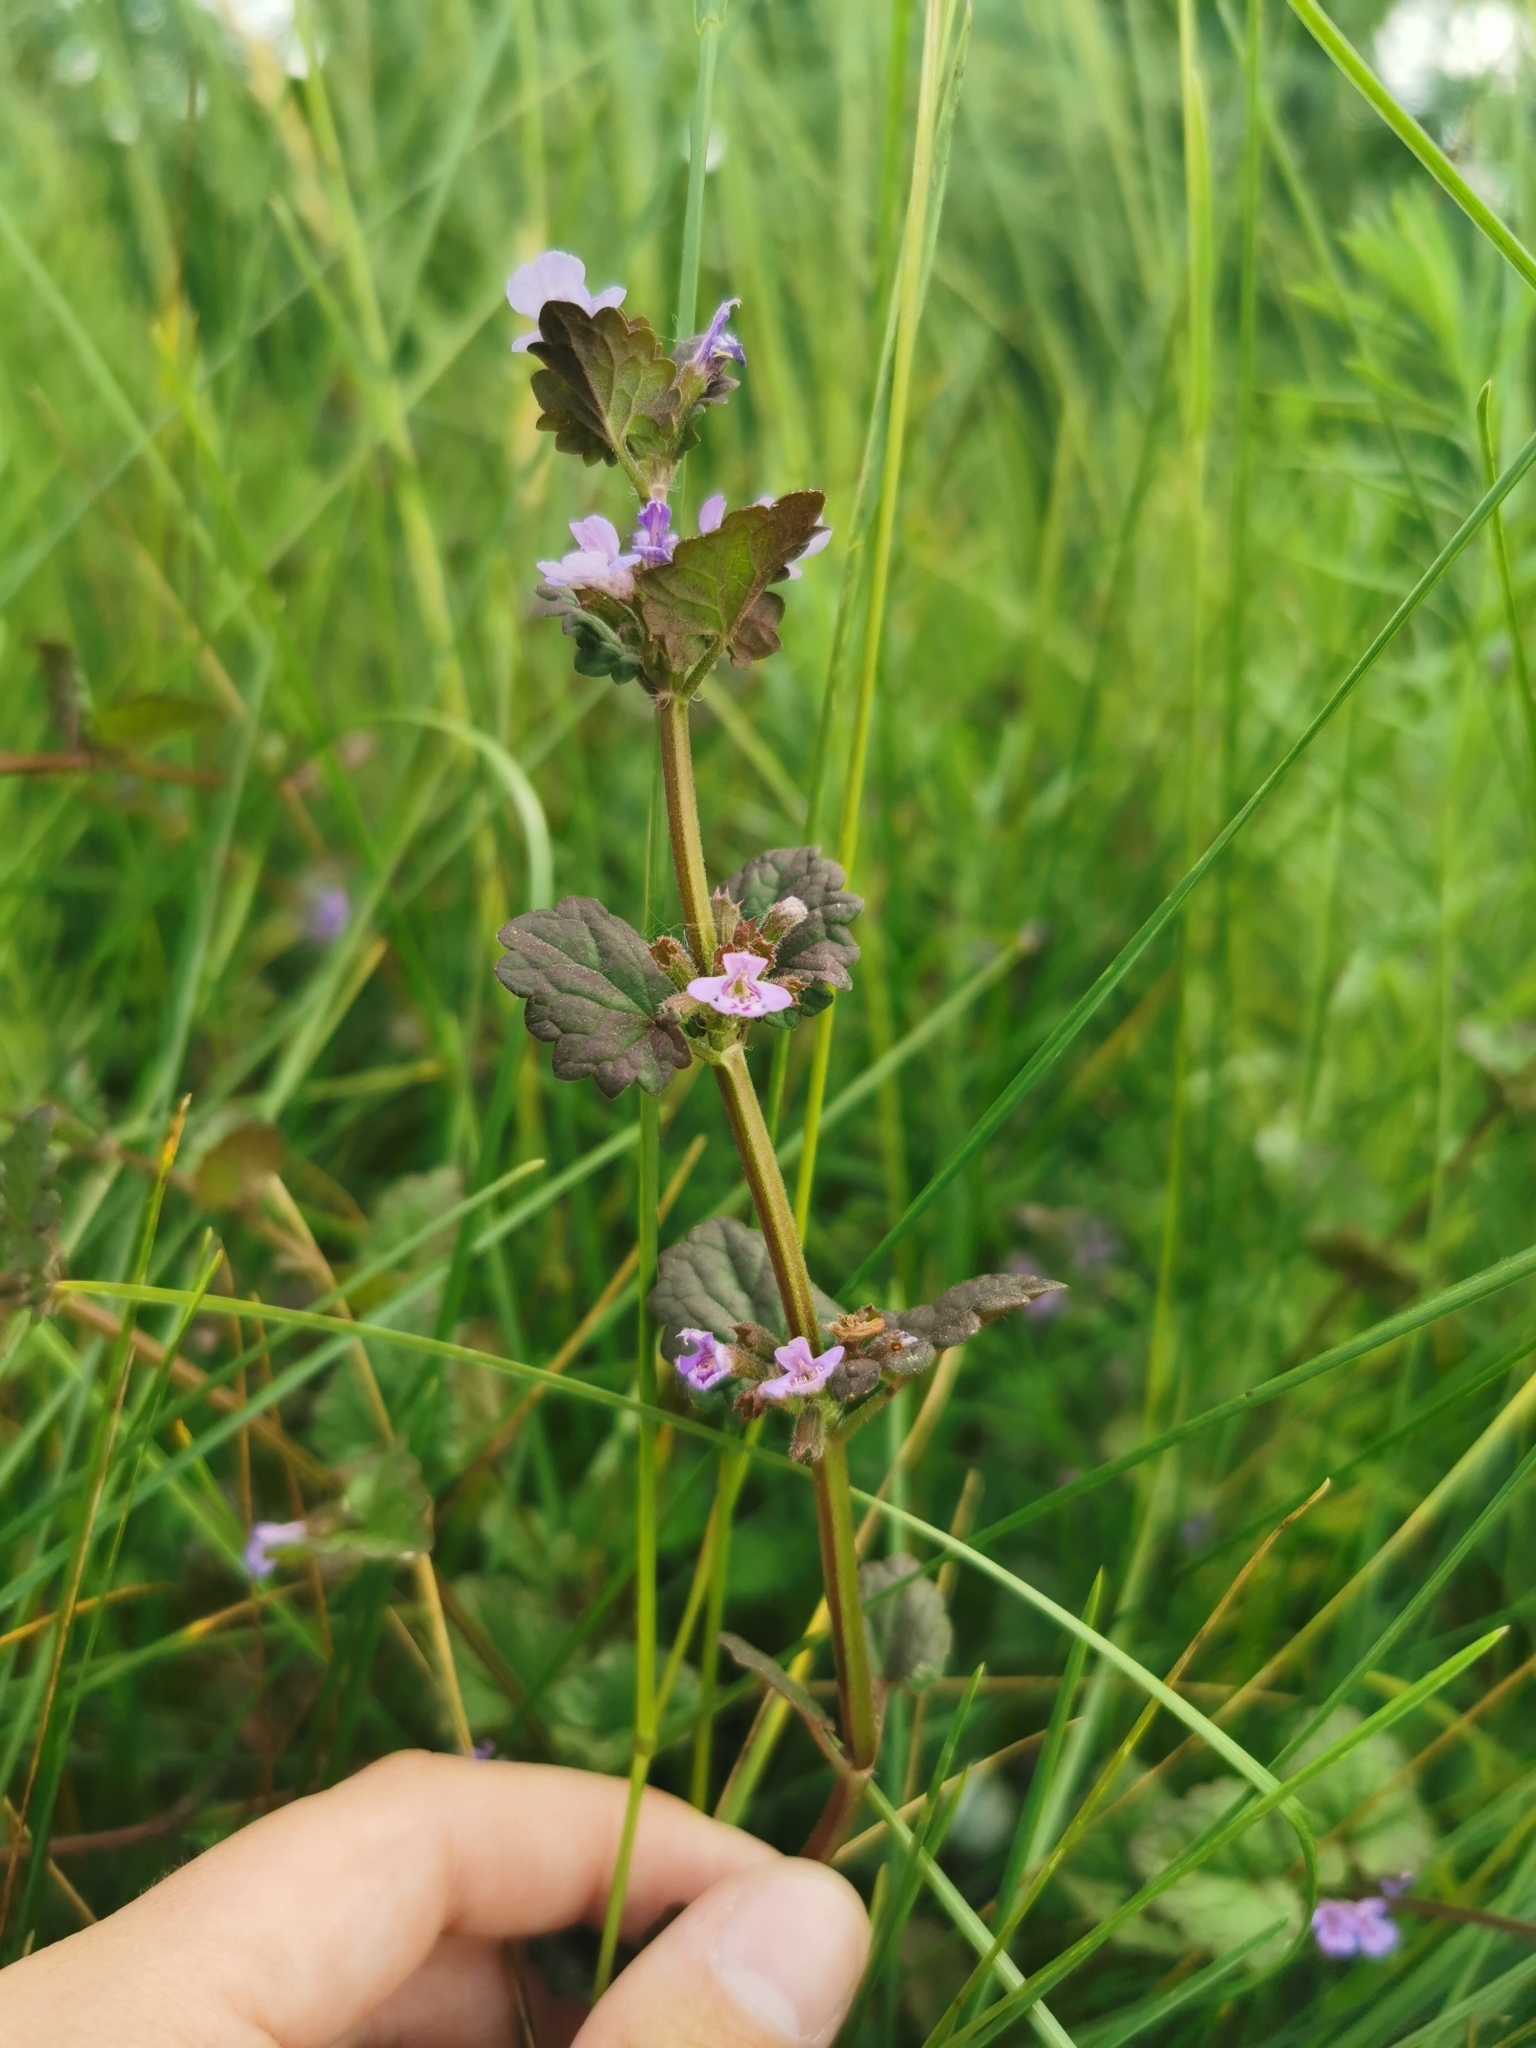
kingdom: Plantae
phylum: Tracheophyta
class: Magnoliopsida
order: Lamiales
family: Lamiaceae
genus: Glechoma
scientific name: Glechoma hederacea
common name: Ground ivy
